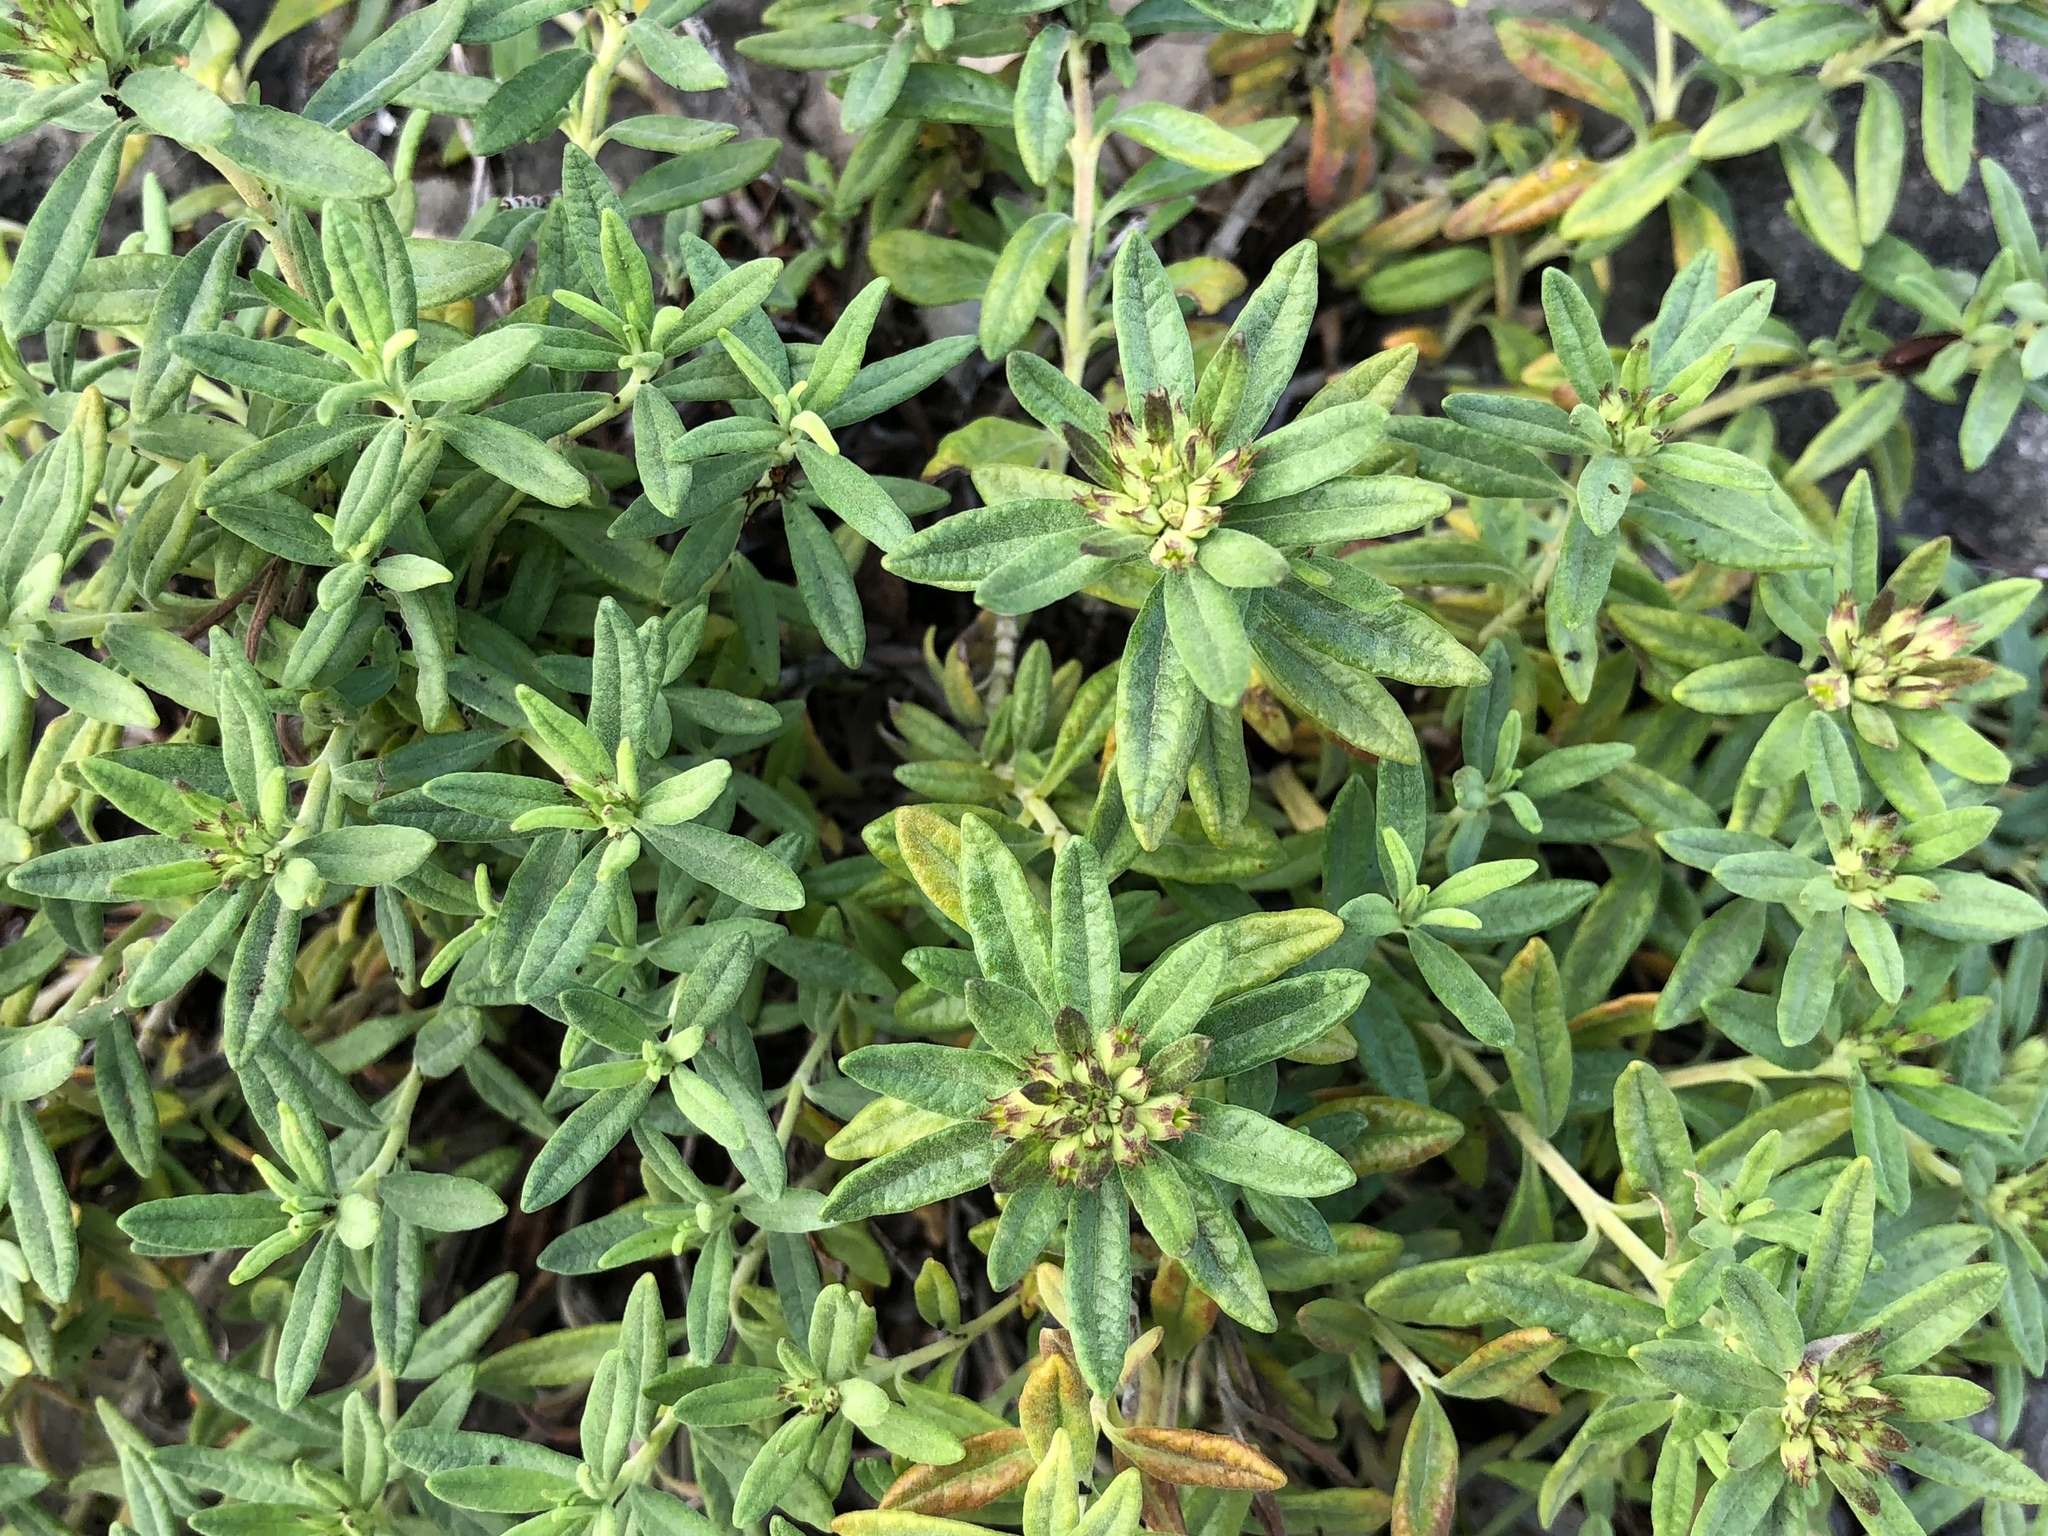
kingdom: Plantae
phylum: Tracheophyta
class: Magnoliopsida
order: Lamiales
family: Lamiaceae
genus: Teucrium
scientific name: Teucrium montanum
